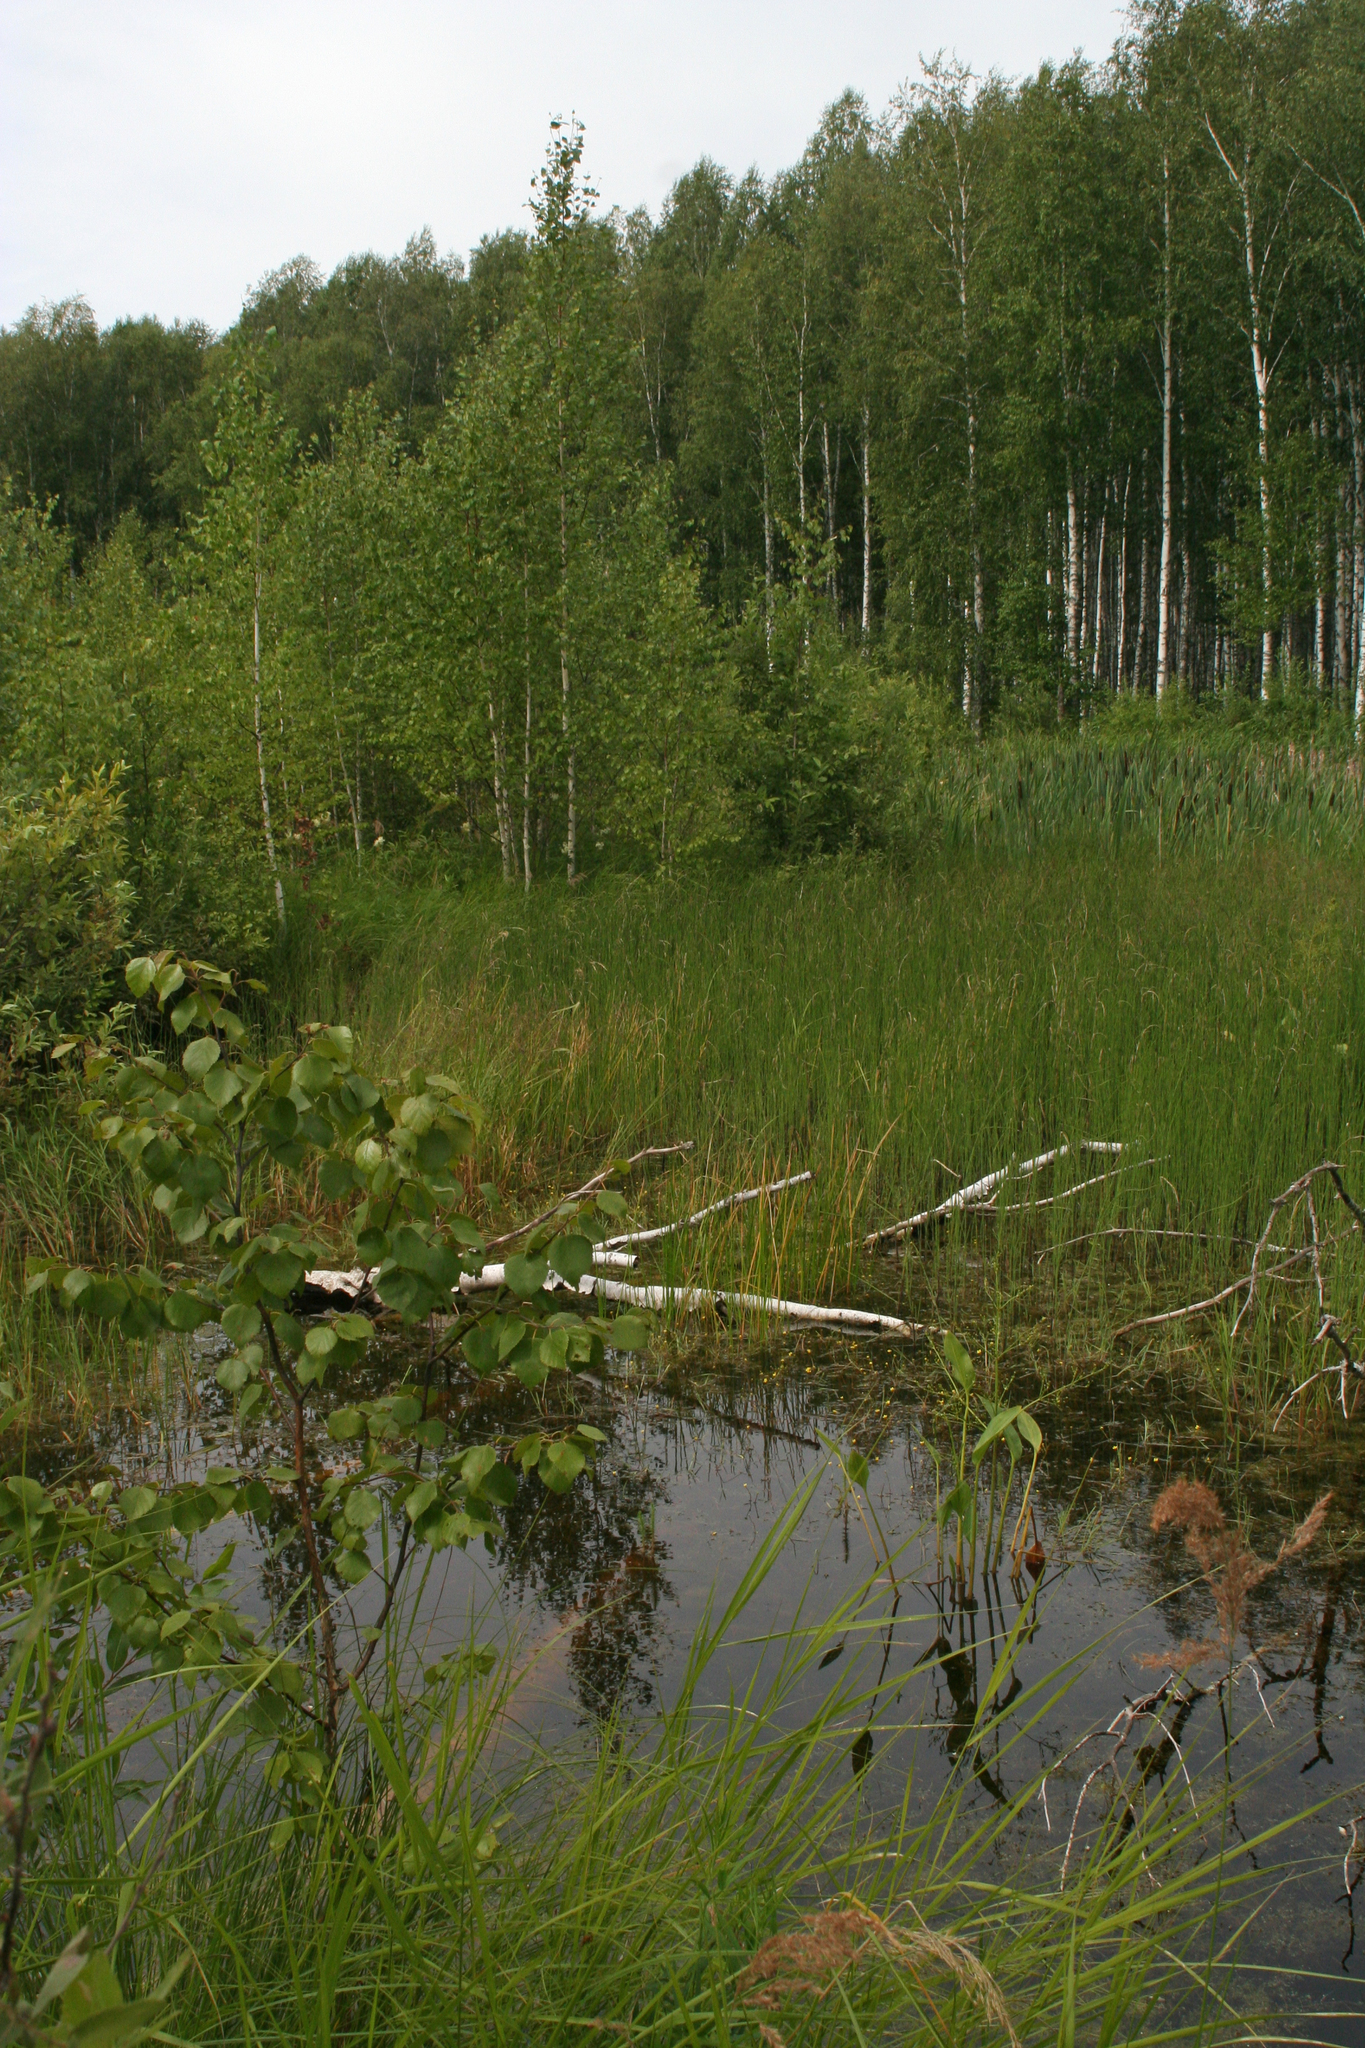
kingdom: Plantae
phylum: Tracheophyta
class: Magnoliopsida
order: Fagales
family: Betulaceae
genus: Betula
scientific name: Betula pendula
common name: Silver birch
